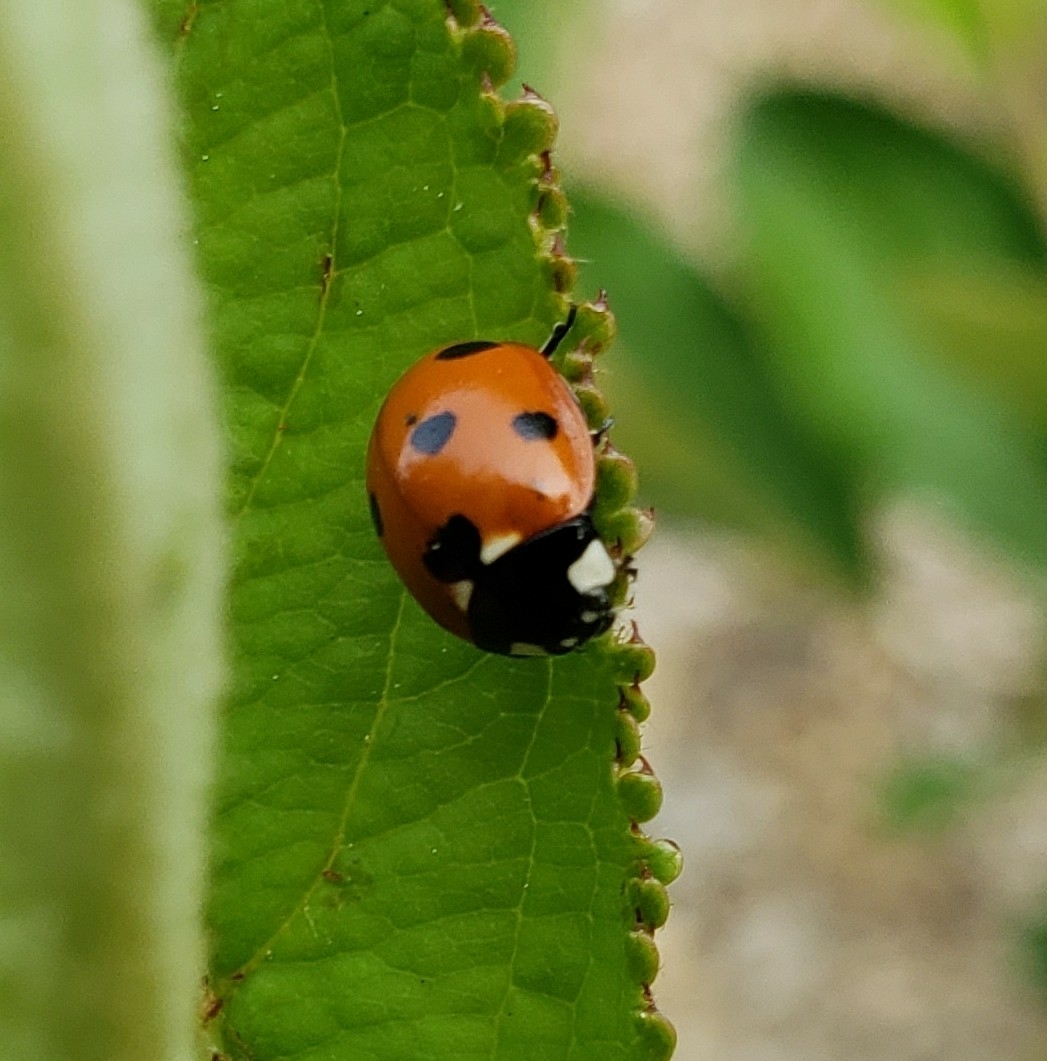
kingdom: Animalia
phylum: Arthropoda
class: Insecta
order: Coleoptera
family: Coccinellidae
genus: Coccinella
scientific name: Coccinella septempunctata
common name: Sevenspotted lady beetle
